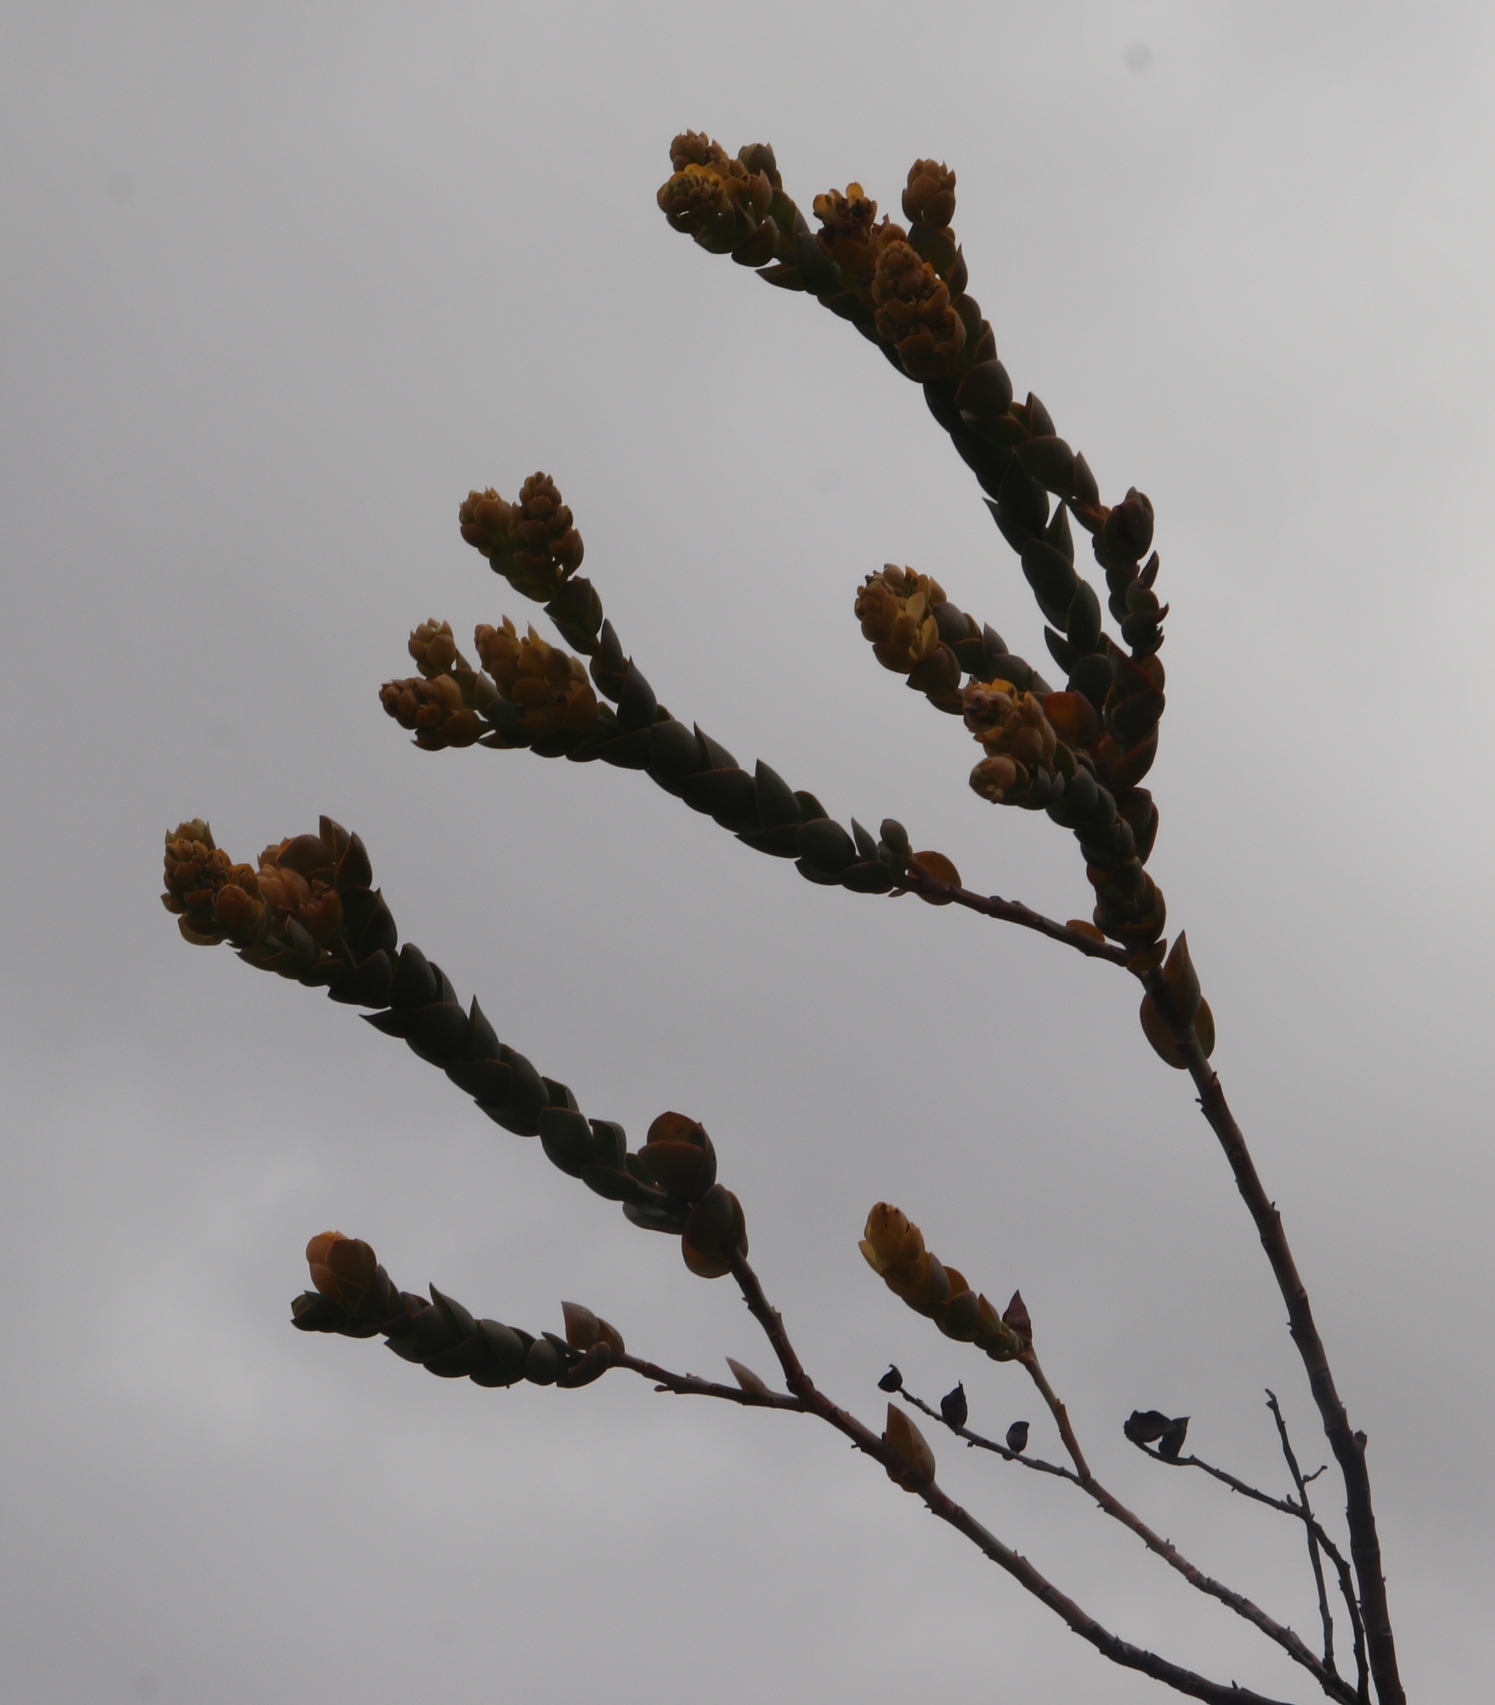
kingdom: Plantae
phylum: Tracheophyta
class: Magnoliopsida
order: Santalales
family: Thesiaceae
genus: Thesium
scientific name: Thesium euphorbioides
